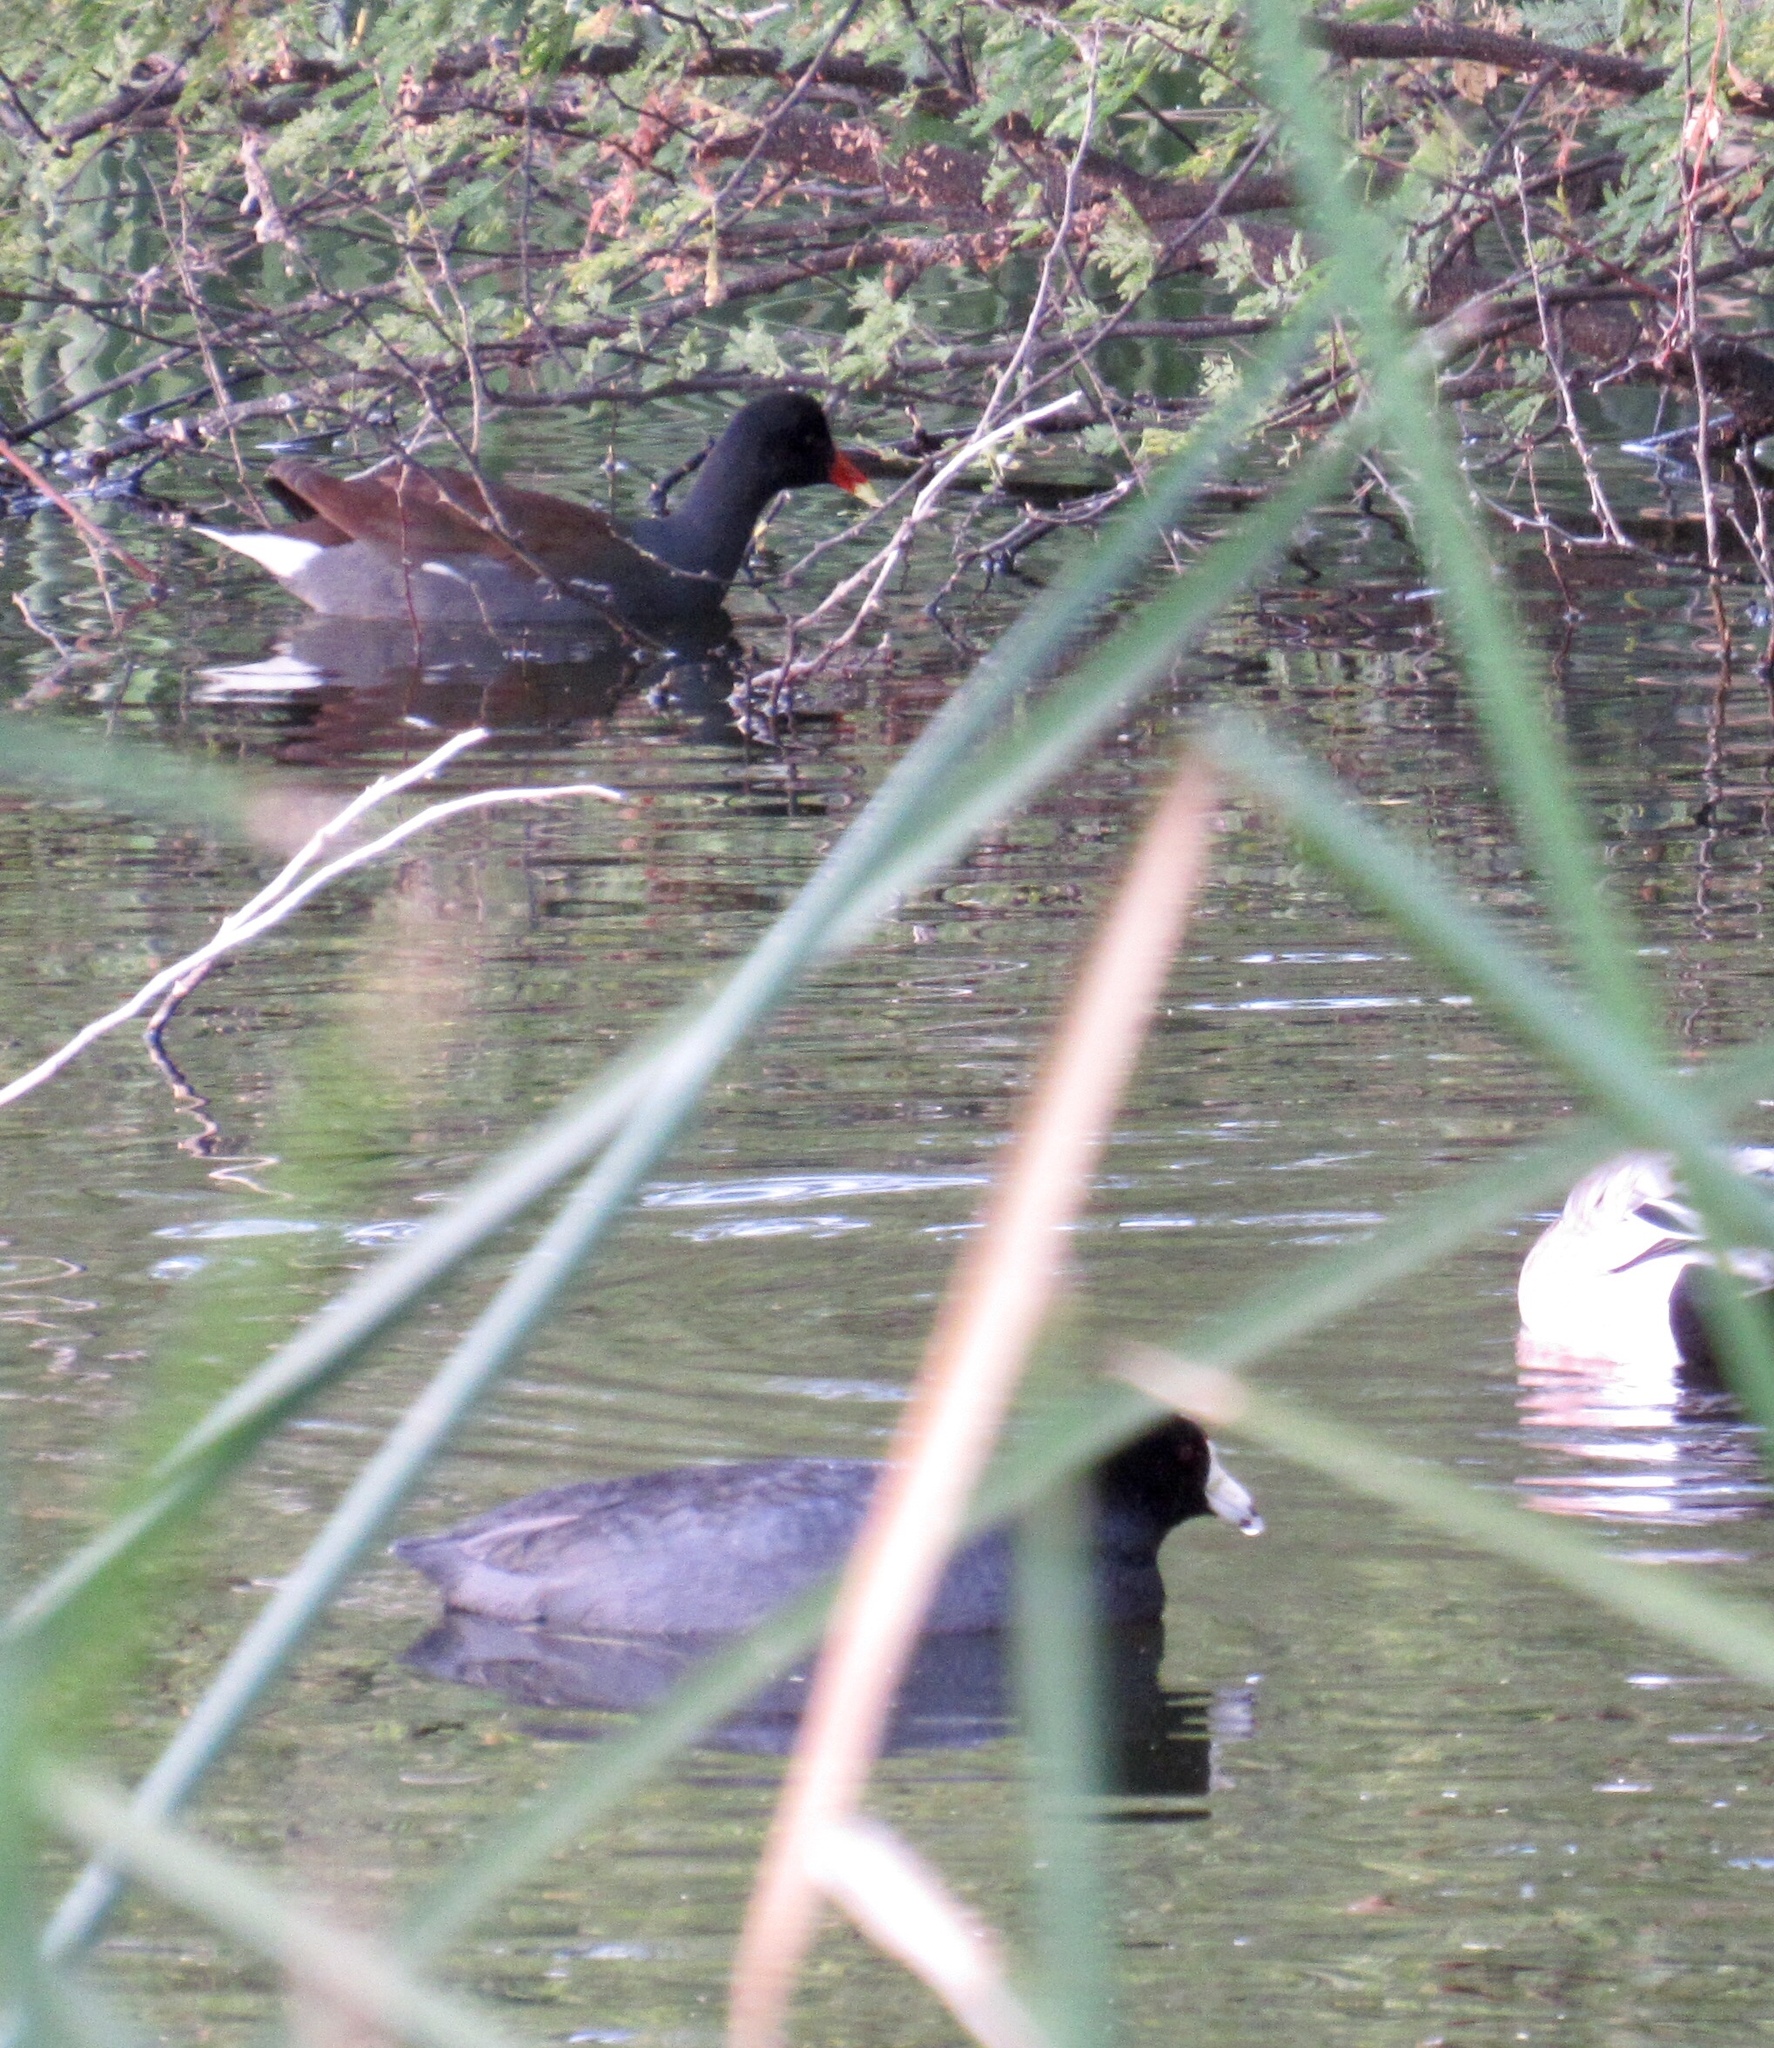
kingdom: Animalia
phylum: Chordata
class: Aves
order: Gruiformes
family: Rallidae
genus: Gallinula
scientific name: Gallinula chloropus
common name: Common moorhen
